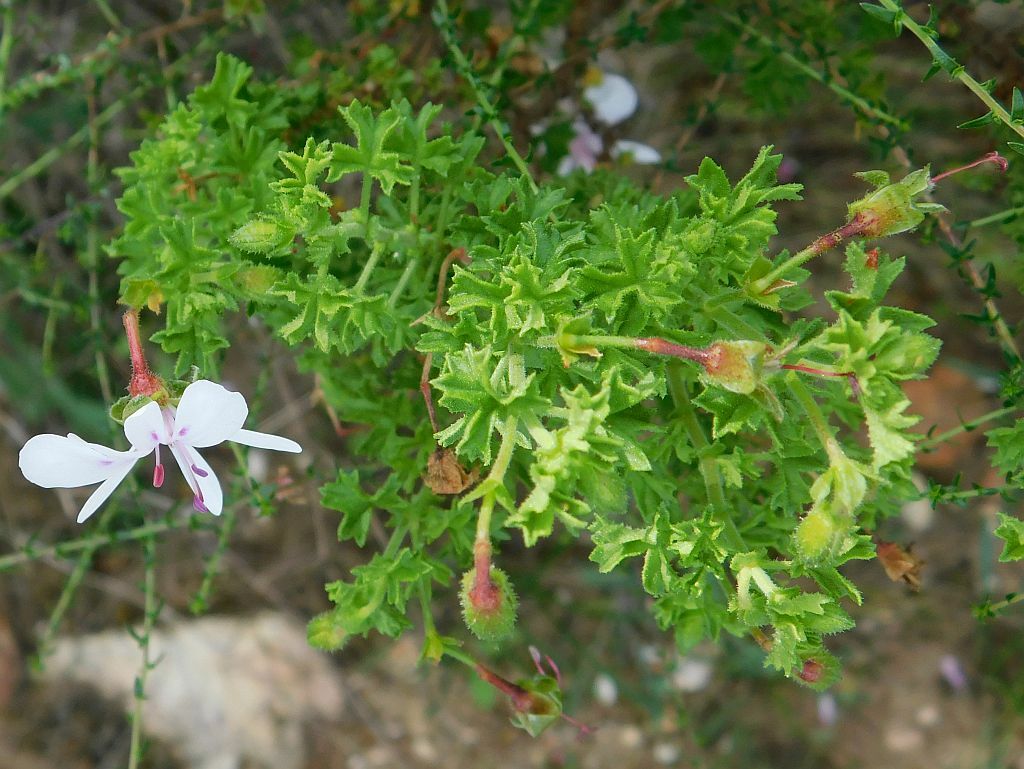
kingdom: Plantae
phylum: Tracheophyta
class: Magnoliopsida
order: Geraniales
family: Geraniaceae
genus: Pelargonium
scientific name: Pelargonium crispum
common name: Crisped-leaf pelargonium
